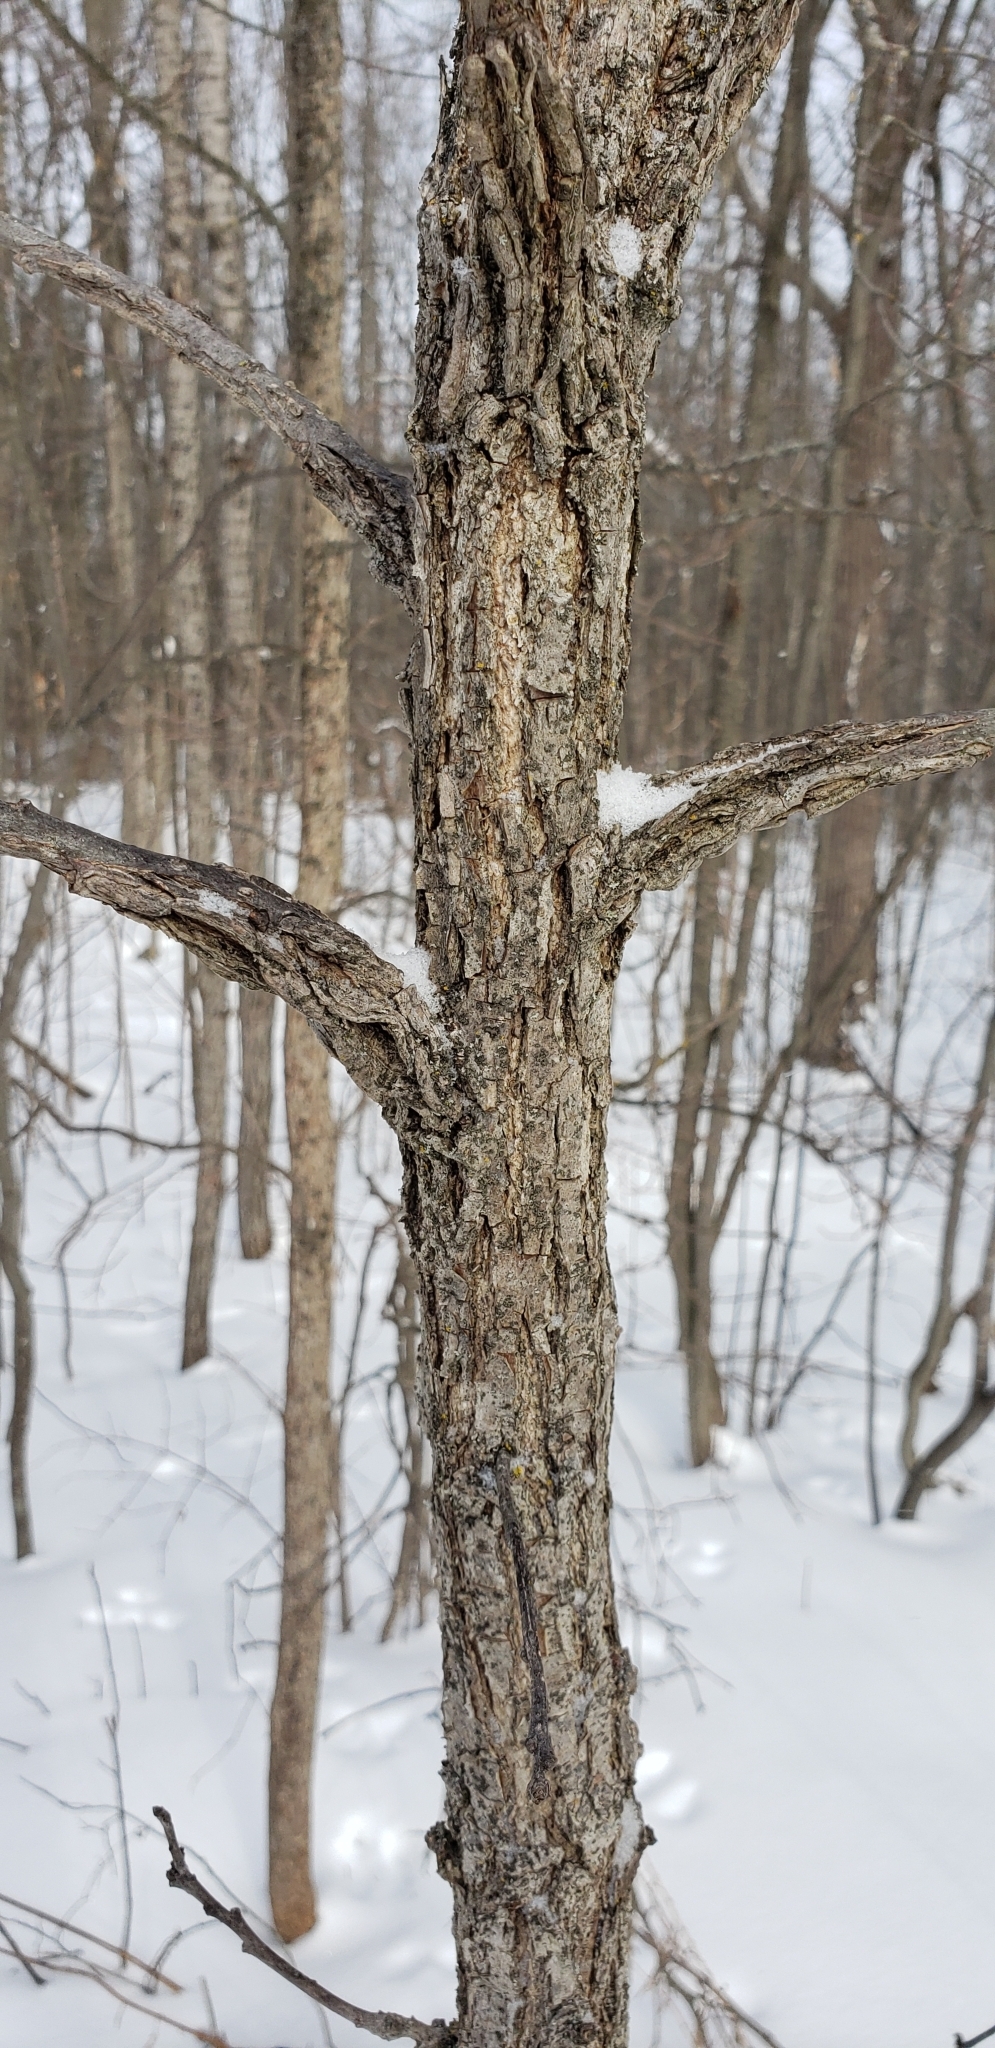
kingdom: Plantae
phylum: Tracheophyta
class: Magnoliopsida
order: Fagales
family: Fagaceae
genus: Quercus
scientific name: Quercus macrocarpa
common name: Bur oak
